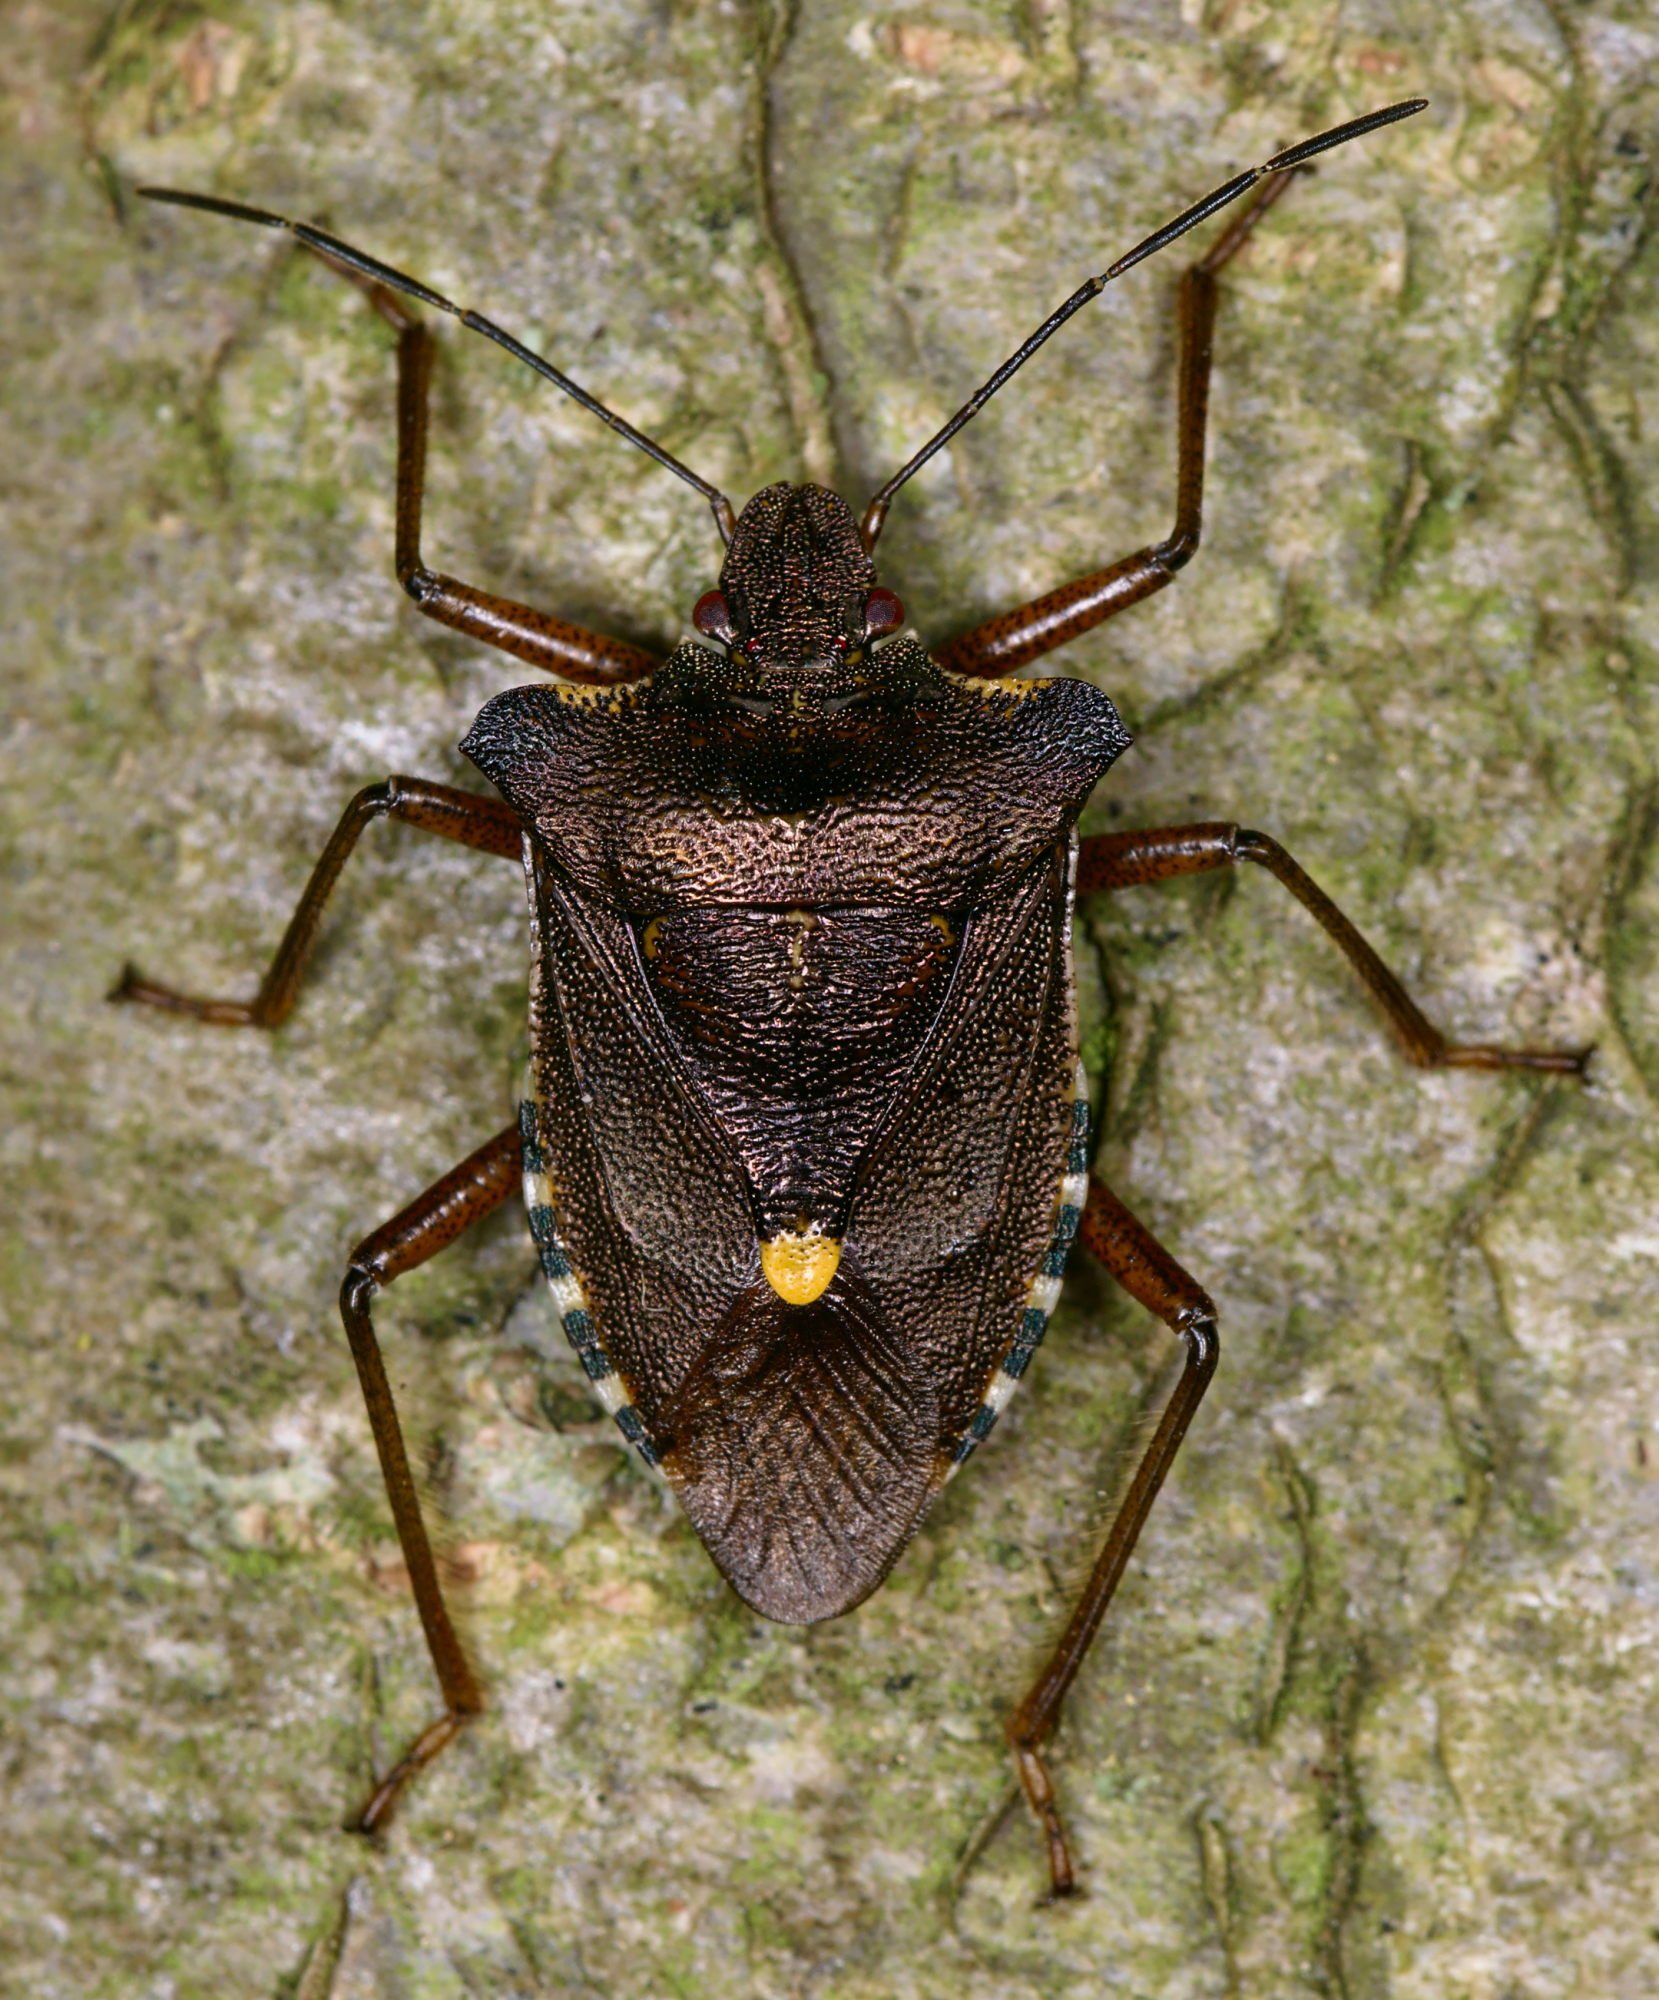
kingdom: Animalia
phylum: Arthropoda
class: Insecta
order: Hemiptera
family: Pentatomidae
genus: Pentatoma
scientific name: Pentatoma rufipes
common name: Forest bug
